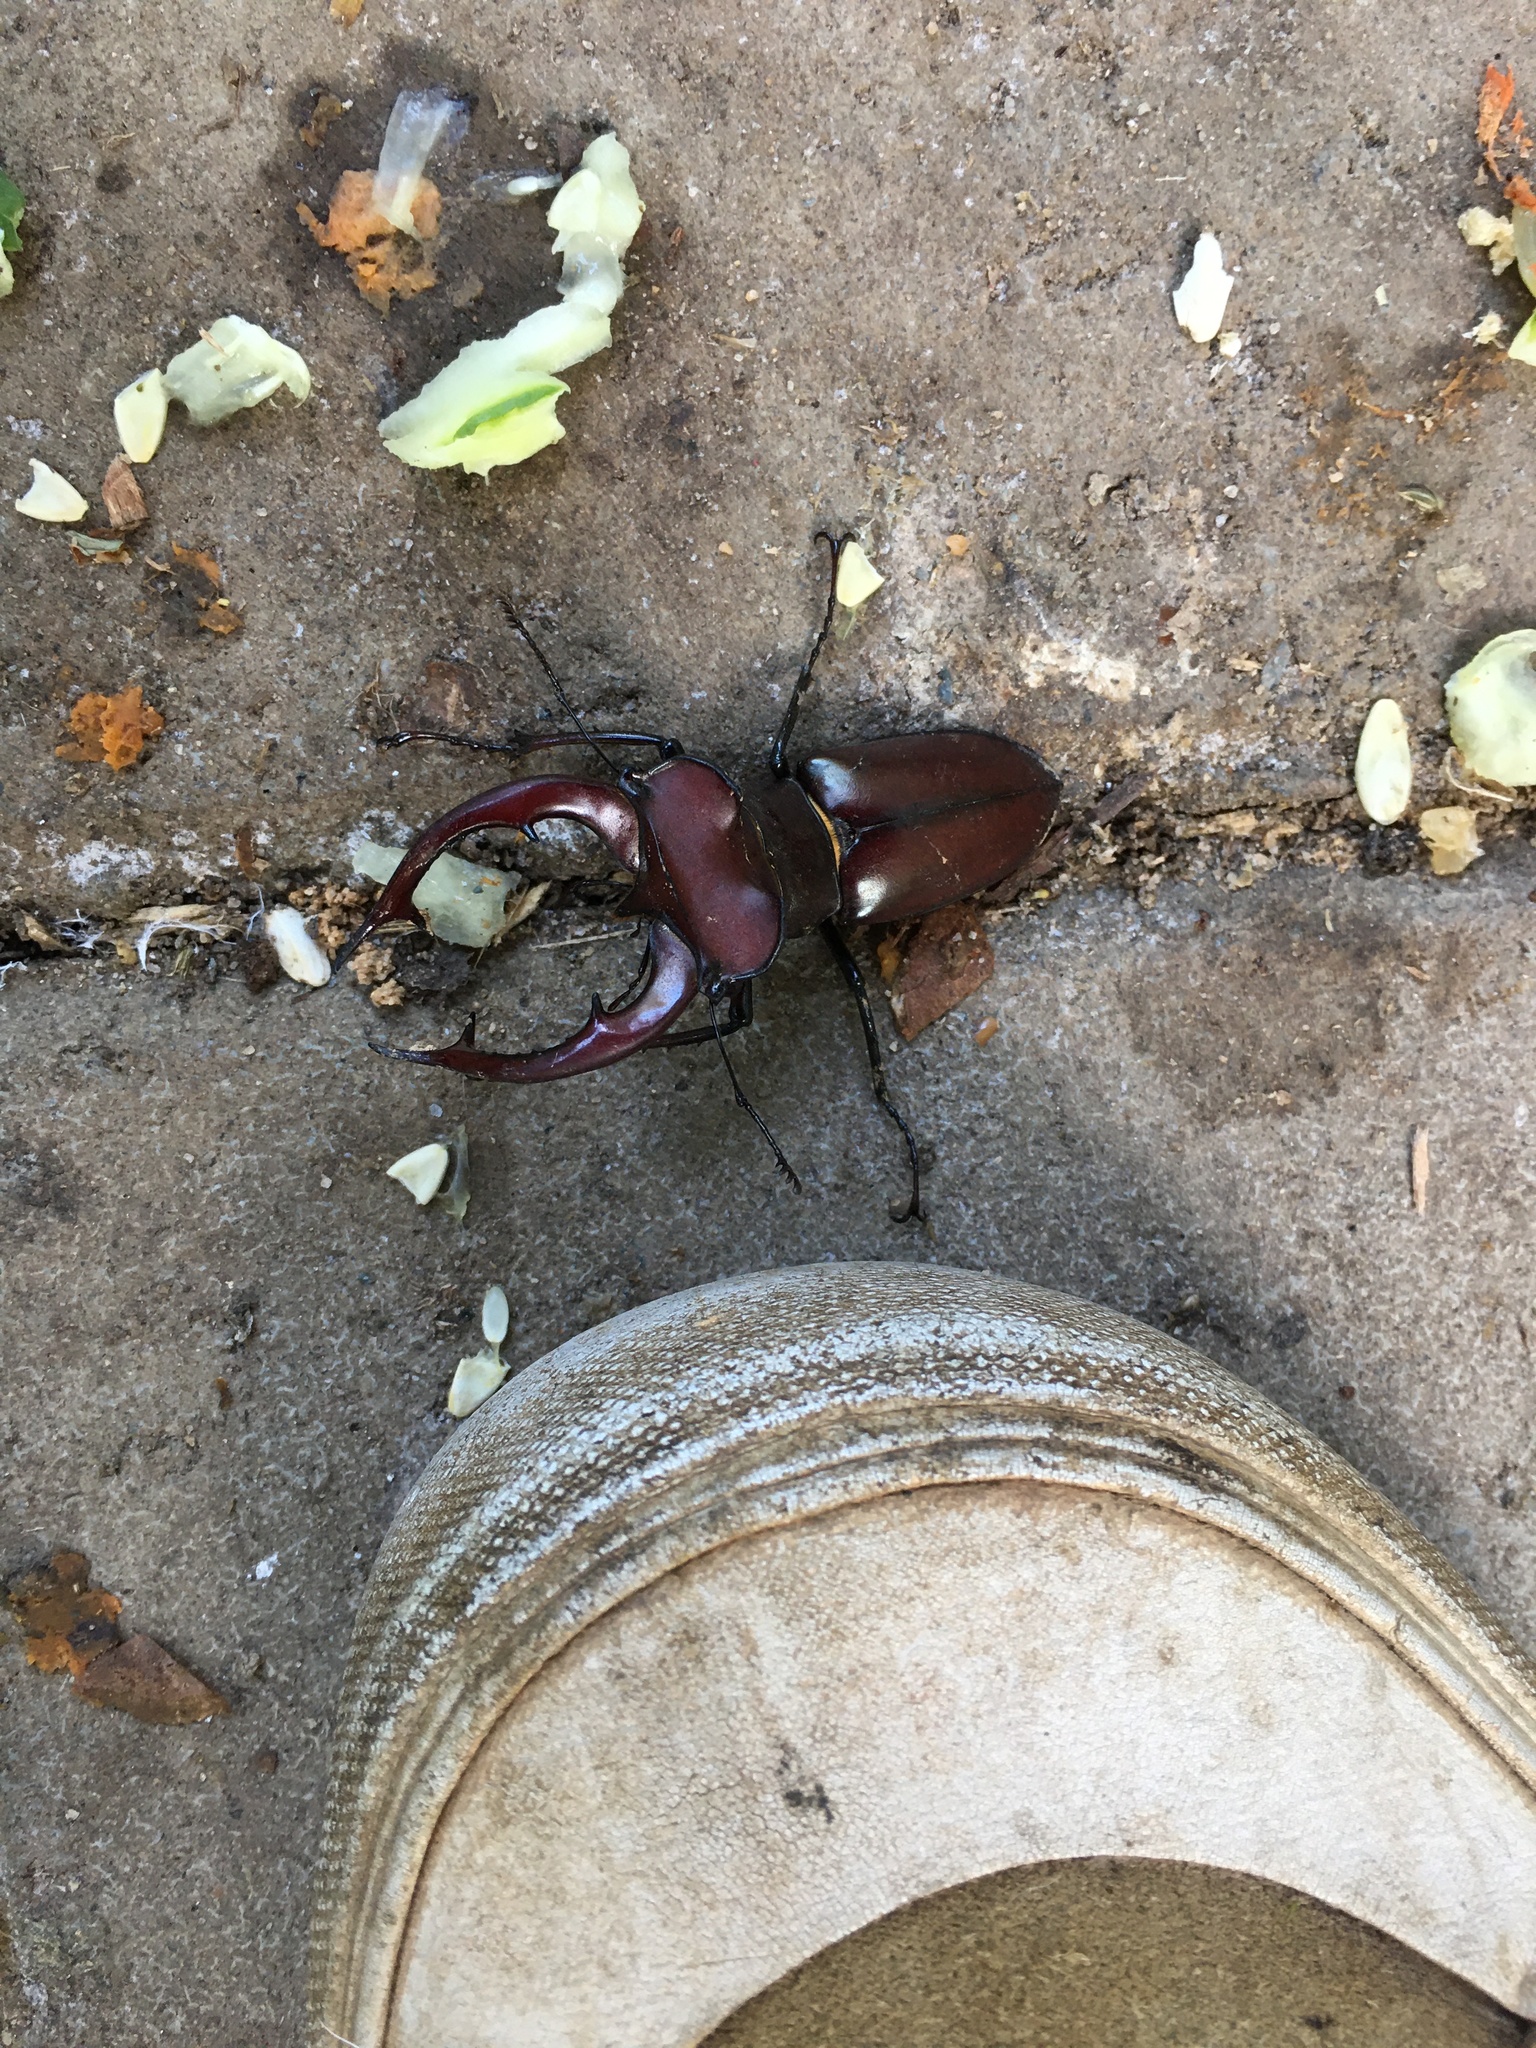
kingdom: Animalia
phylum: Arthropoda
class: Insecta
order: Coleoptera
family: Lucanidae
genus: Lucanus
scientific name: Lucanus elaphus
